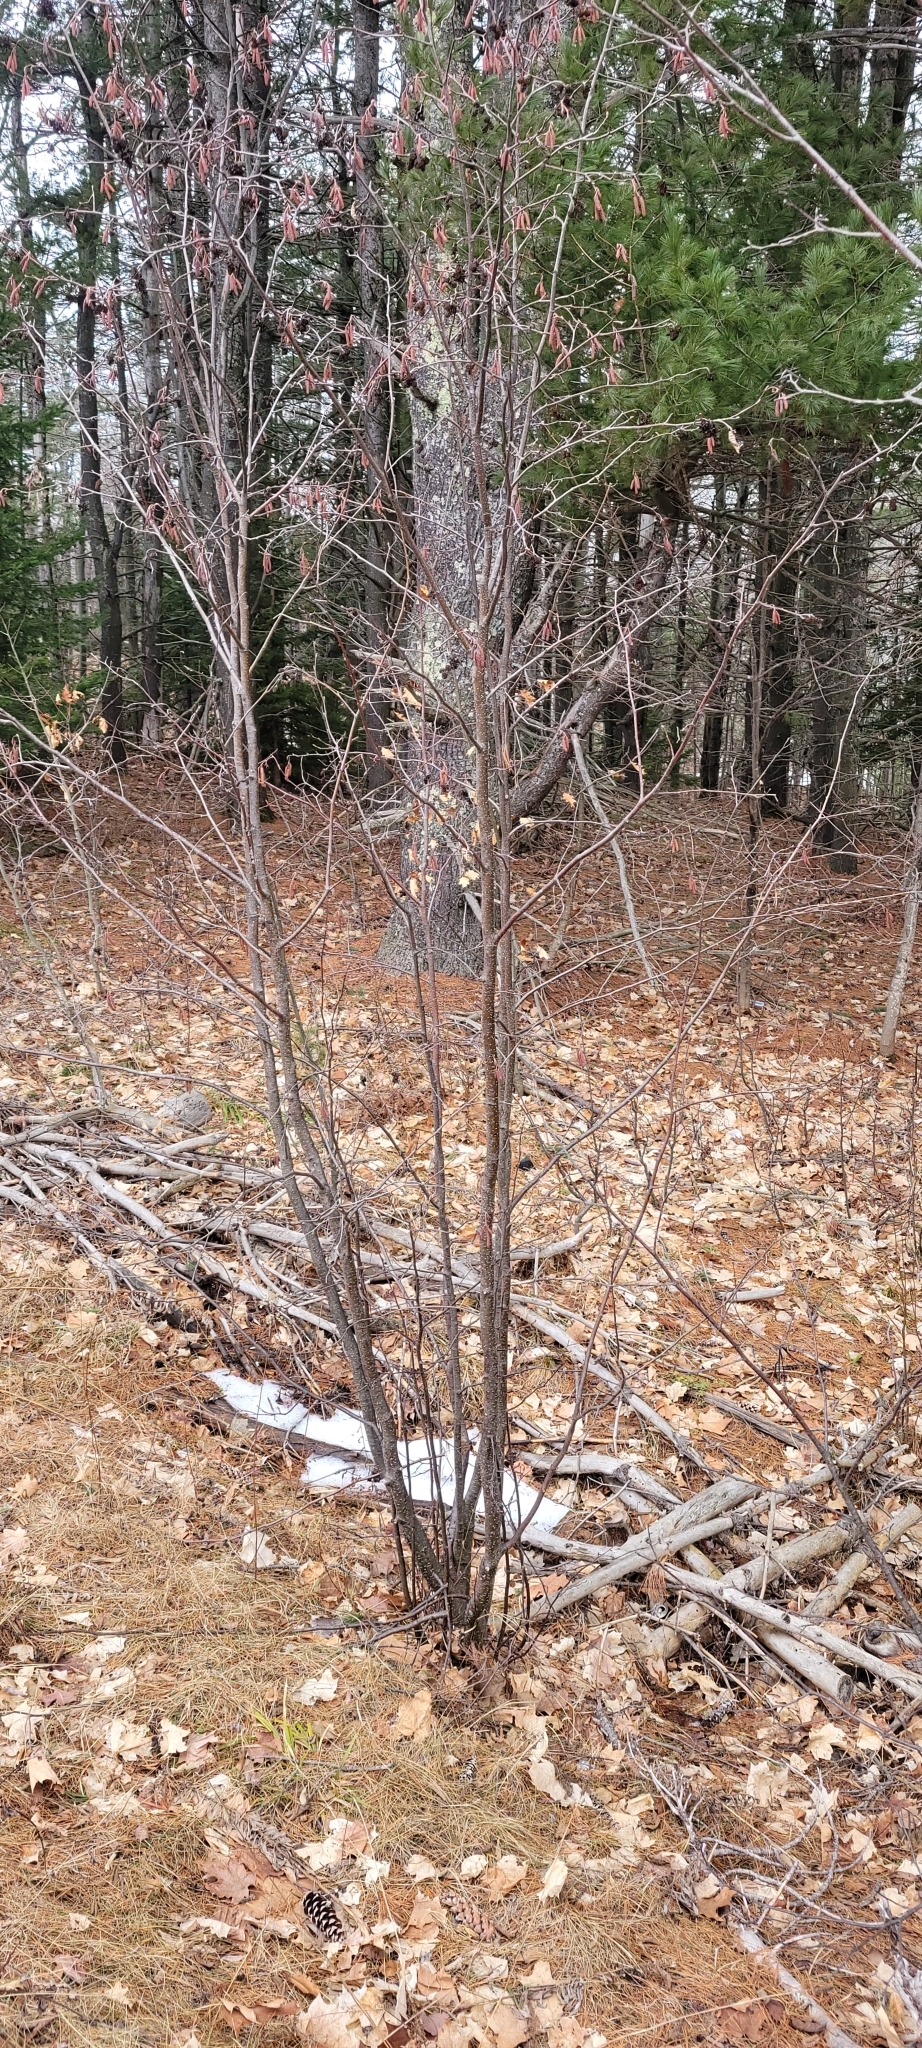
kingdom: Plantae
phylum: Tracheophyta
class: Magnoliopsida
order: Fagales
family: Betulaceae
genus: Alnus
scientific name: Alnus incana
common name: Grey alder
